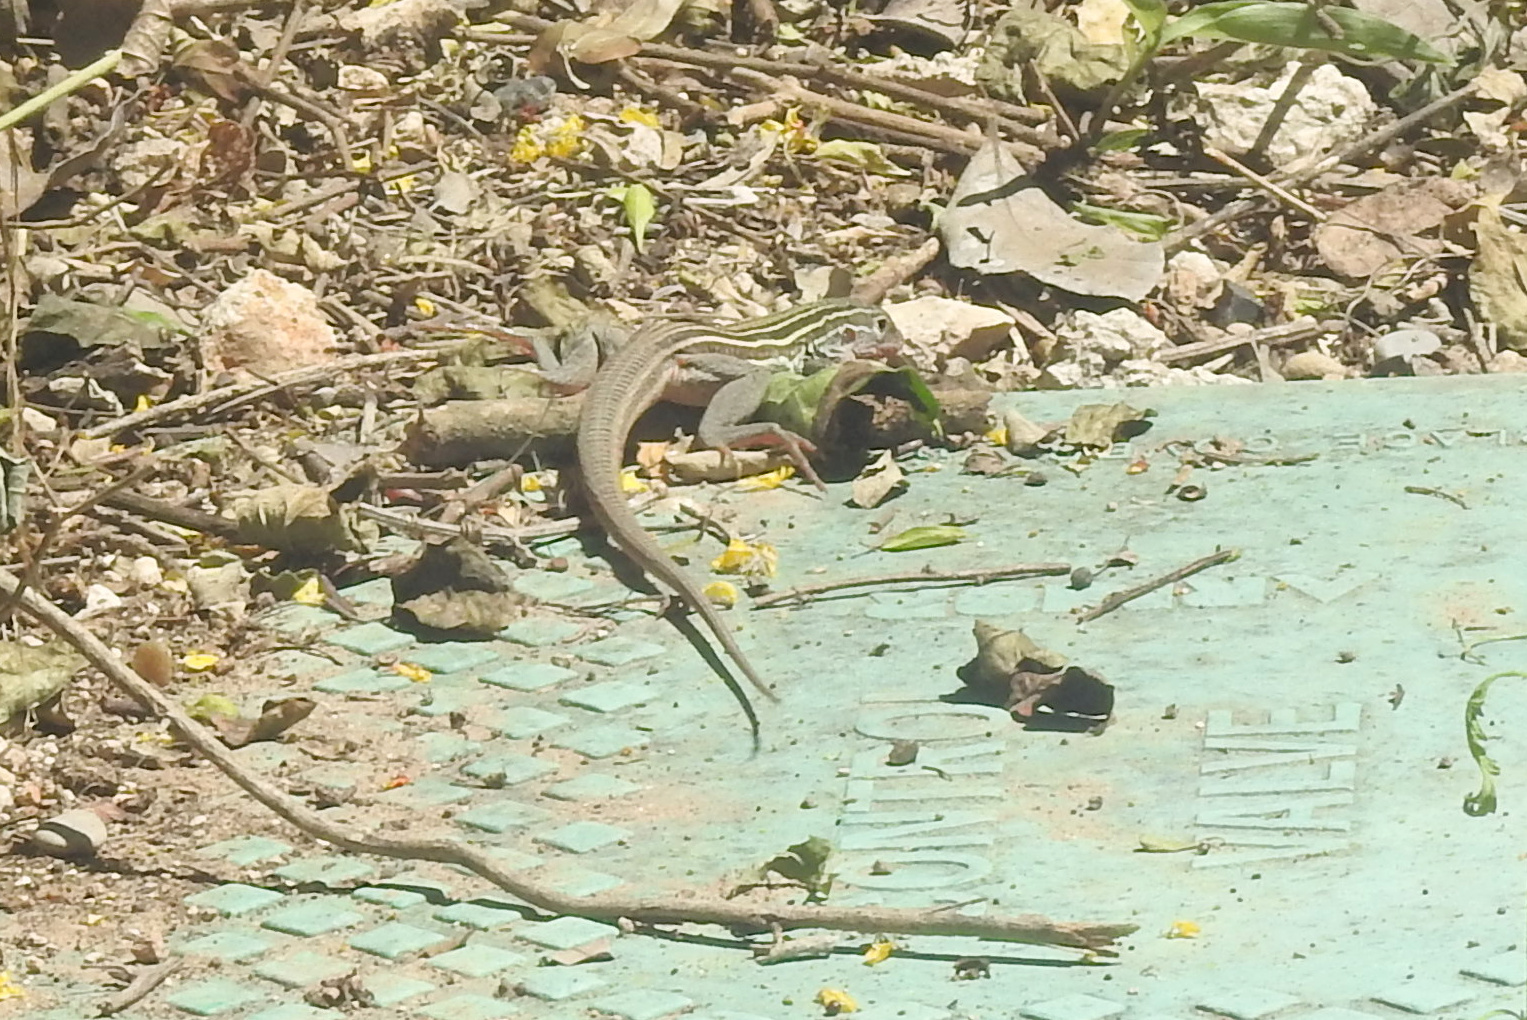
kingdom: Animalia
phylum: Chordata
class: Squamata
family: Teiidae
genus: Aspidoscelis
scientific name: Aspidoscelis gularis
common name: Eastern spotted whiptail
